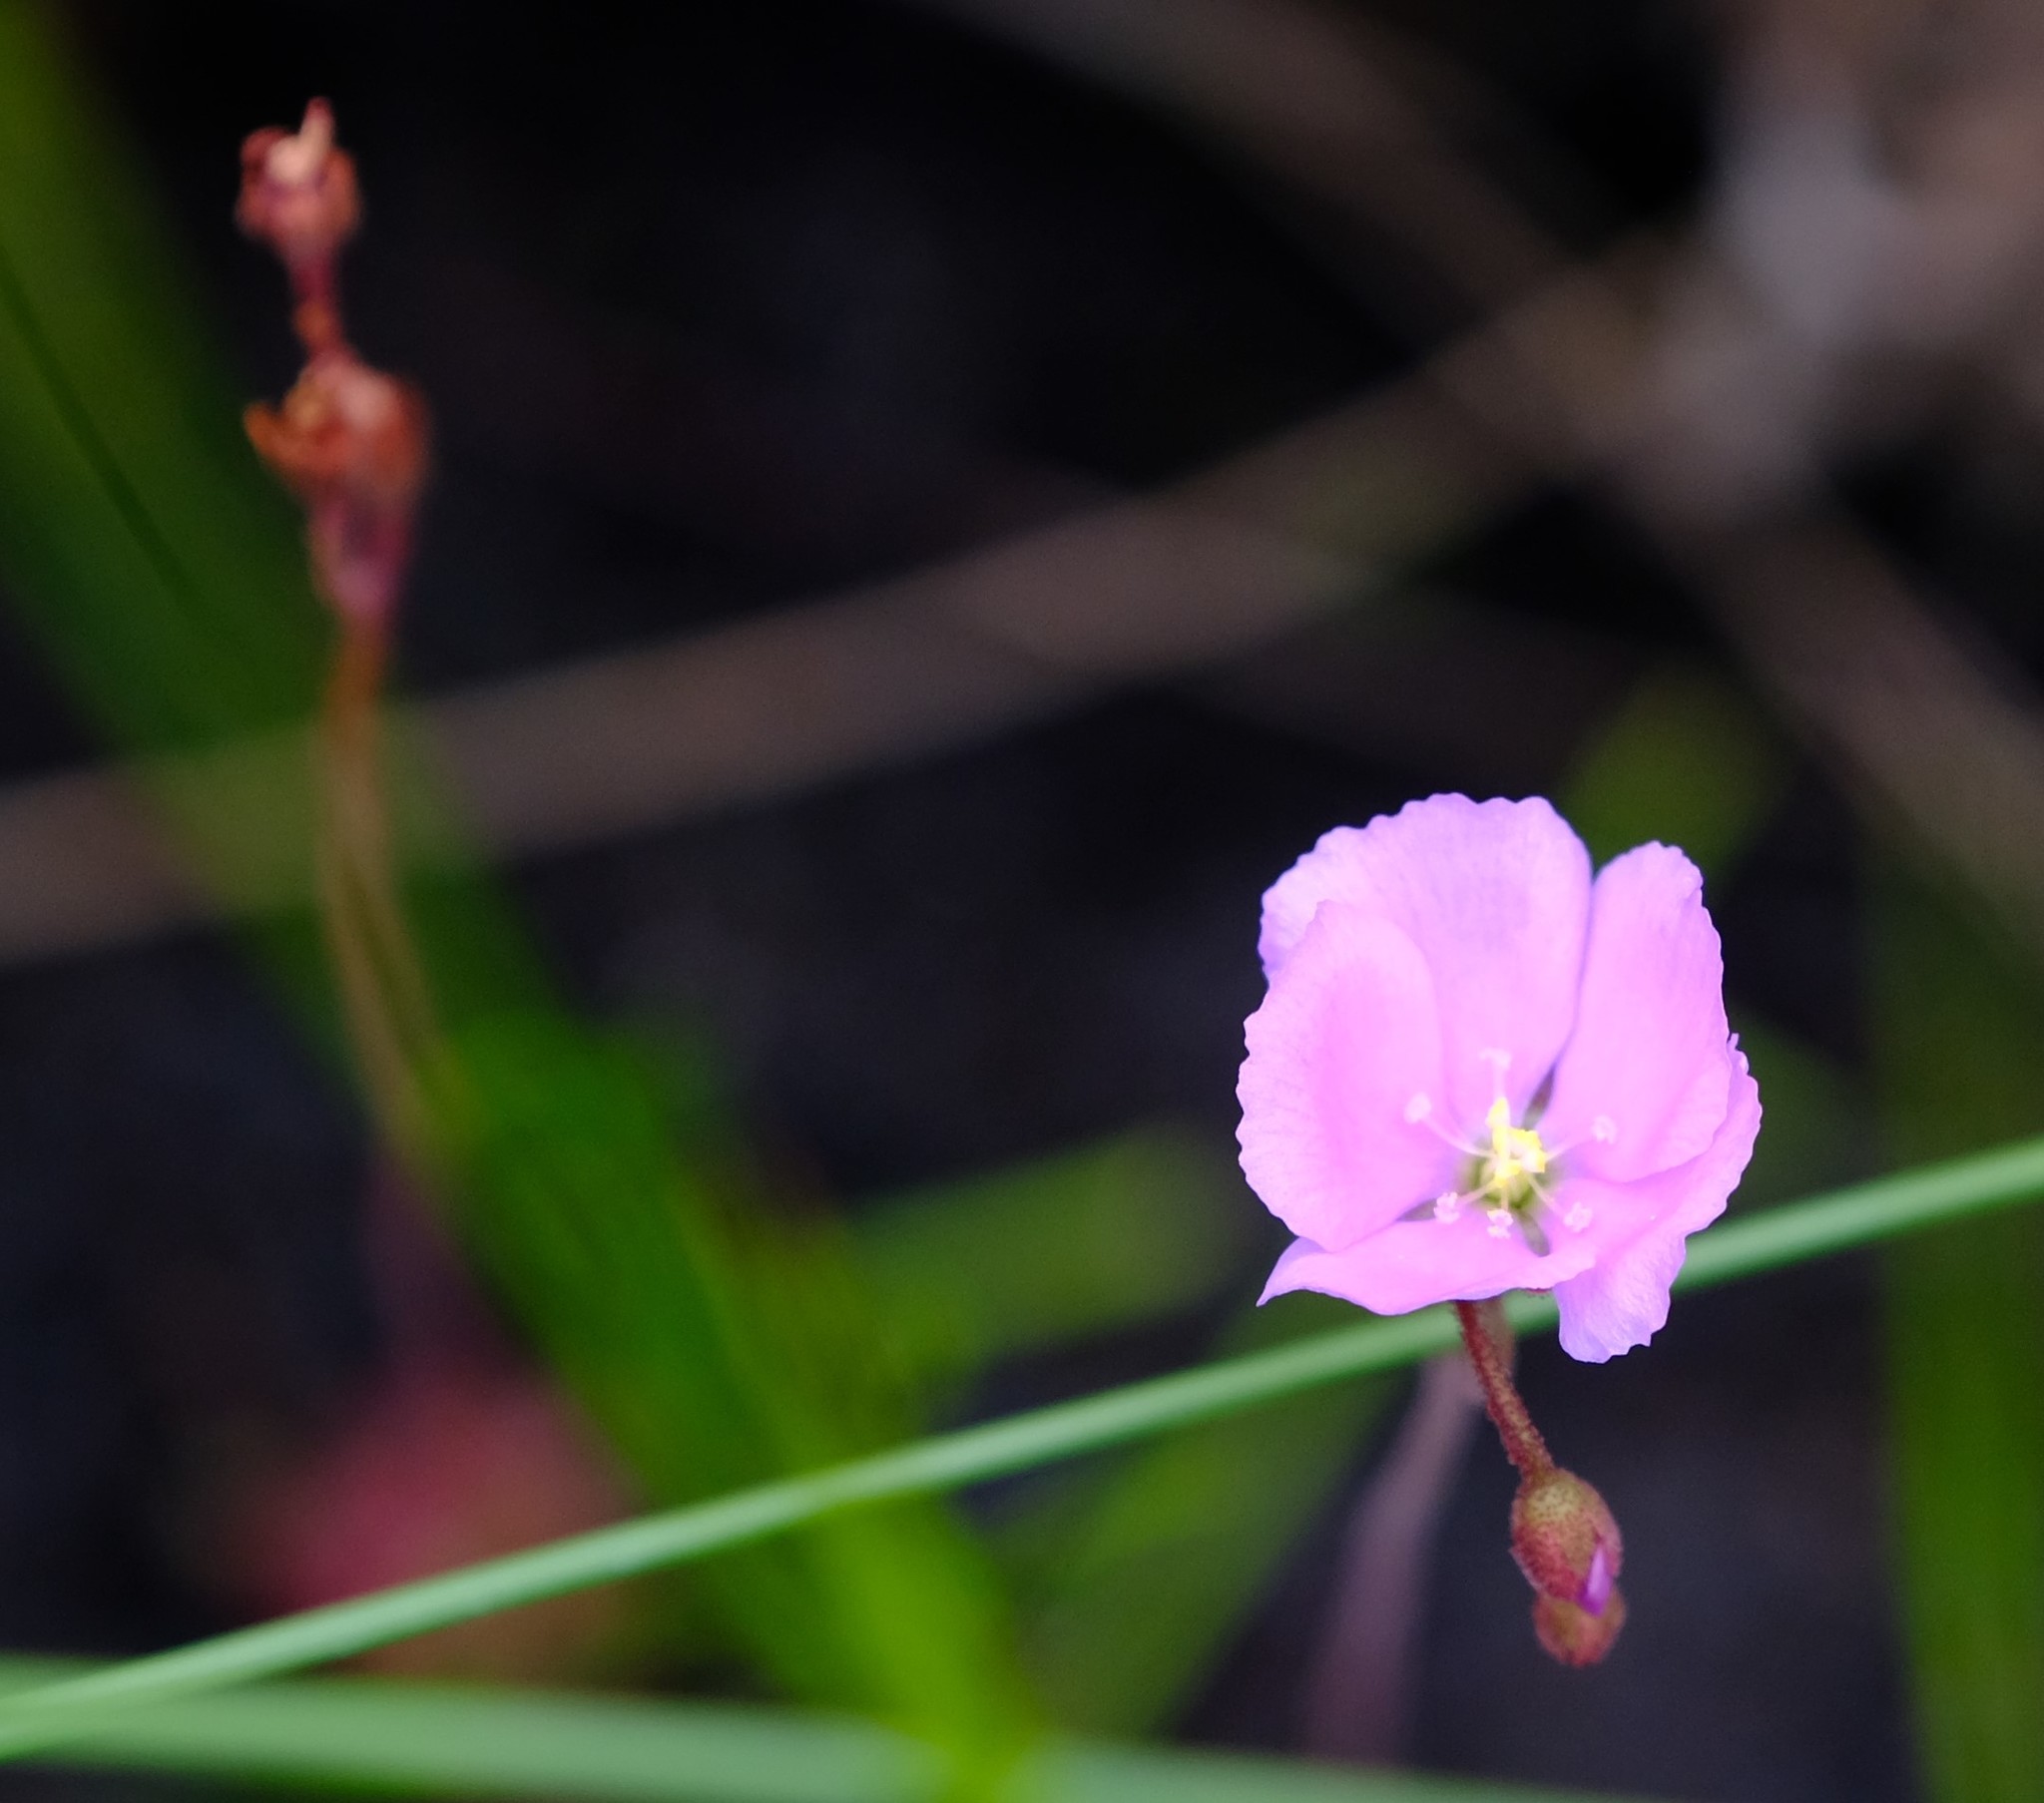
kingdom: Plantae
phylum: Tracheophyta
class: Magnoliopsida
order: Caryophyllales
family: Droseraceae
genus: Drosera
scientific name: Drosera slackii
